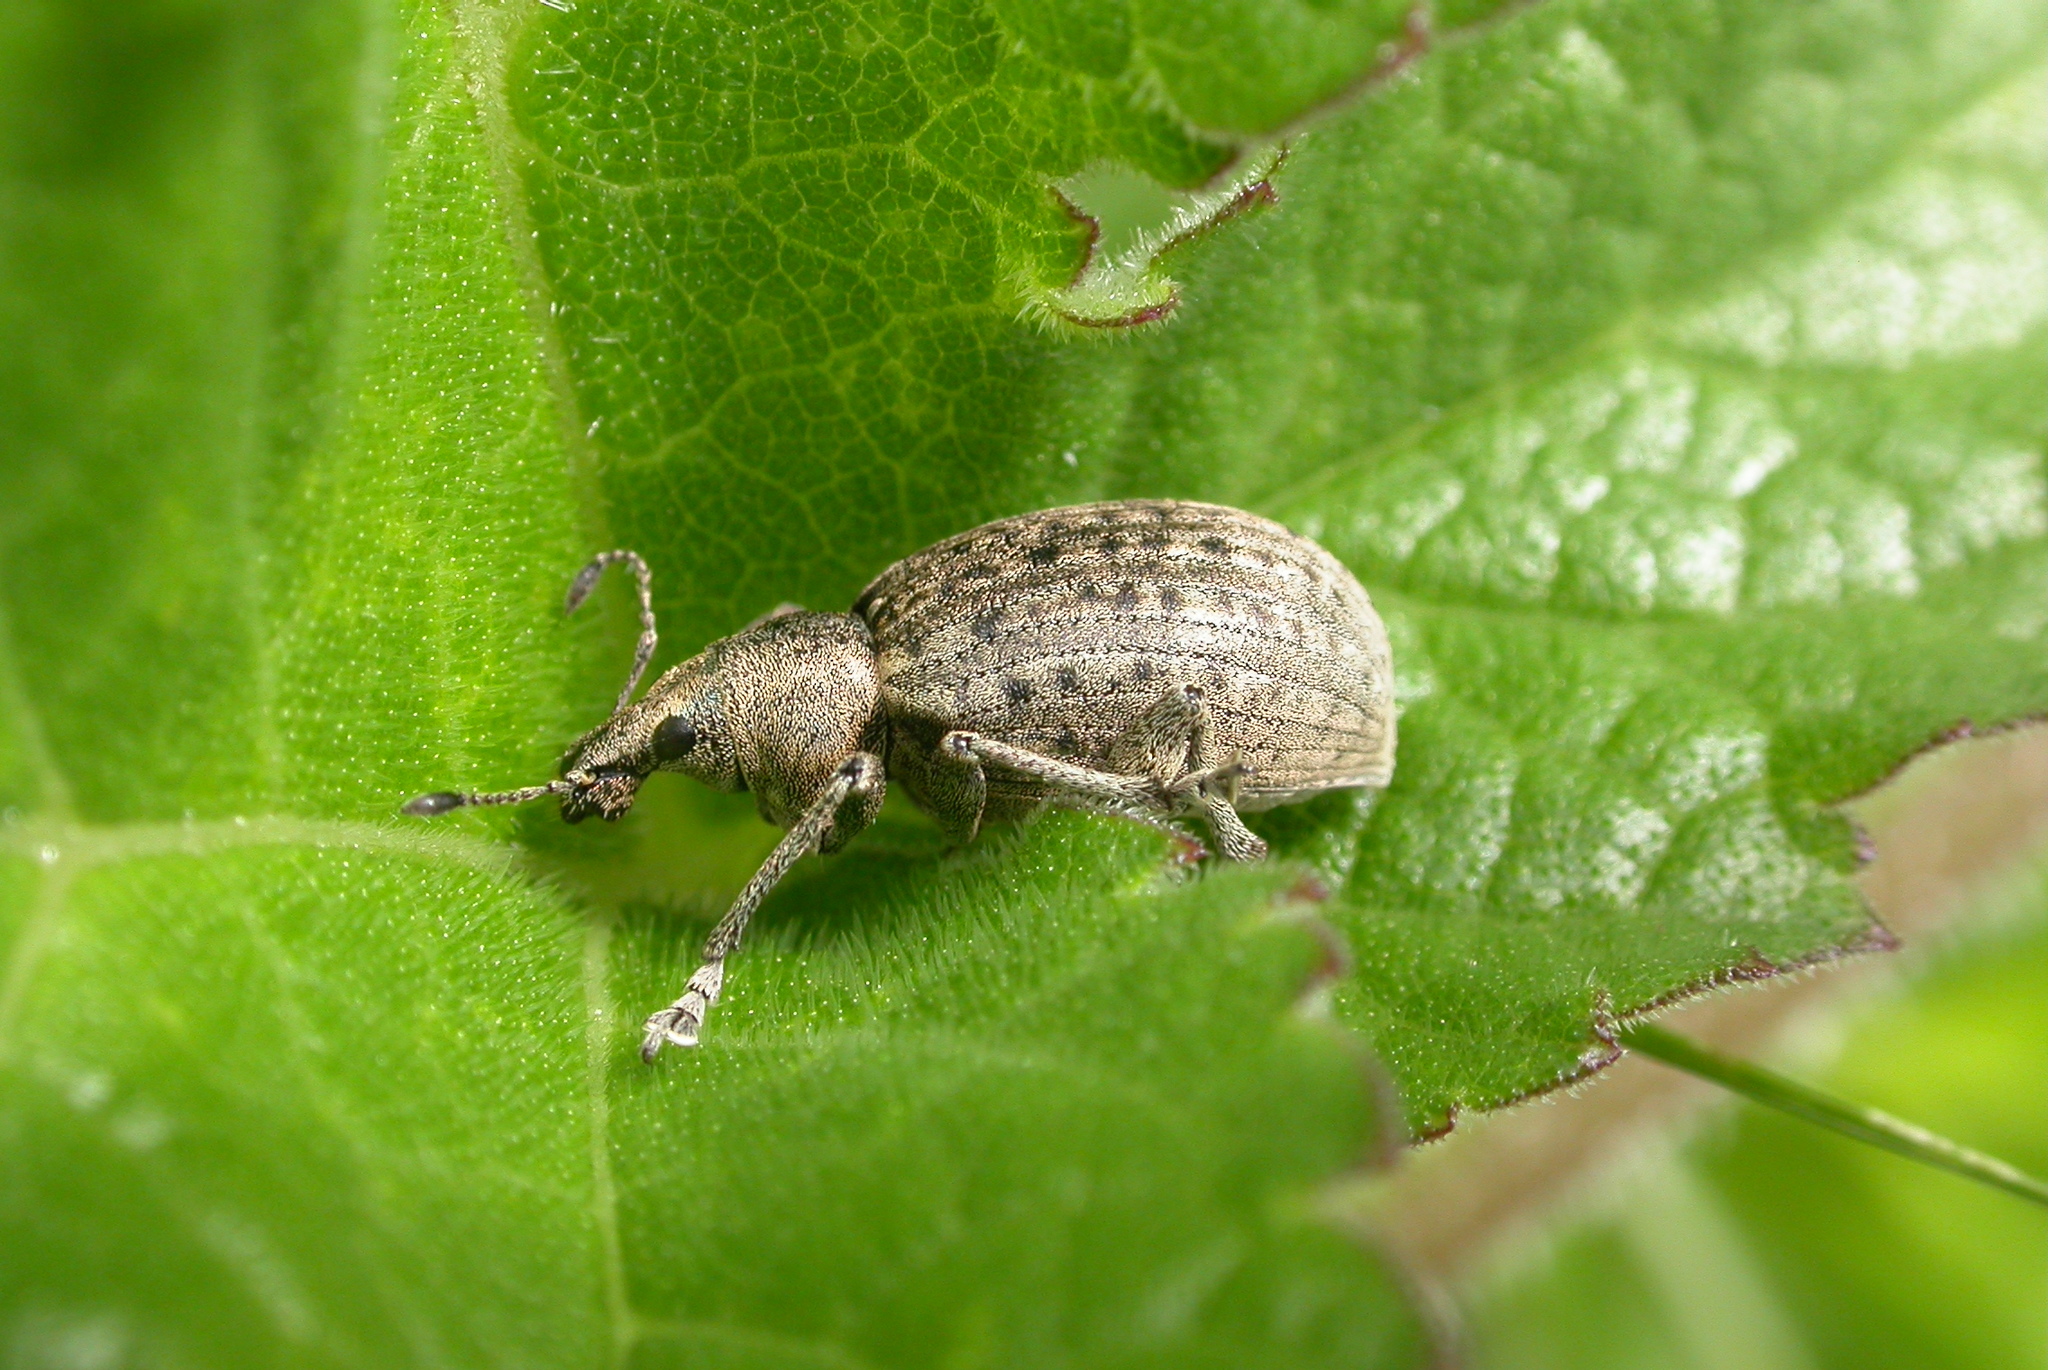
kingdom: Animalia
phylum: Arthropoda
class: Insecta
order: Coleoptera
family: Curculionidae
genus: Liophloeus
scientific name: Liophloeus tessulatus
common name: Weevil
